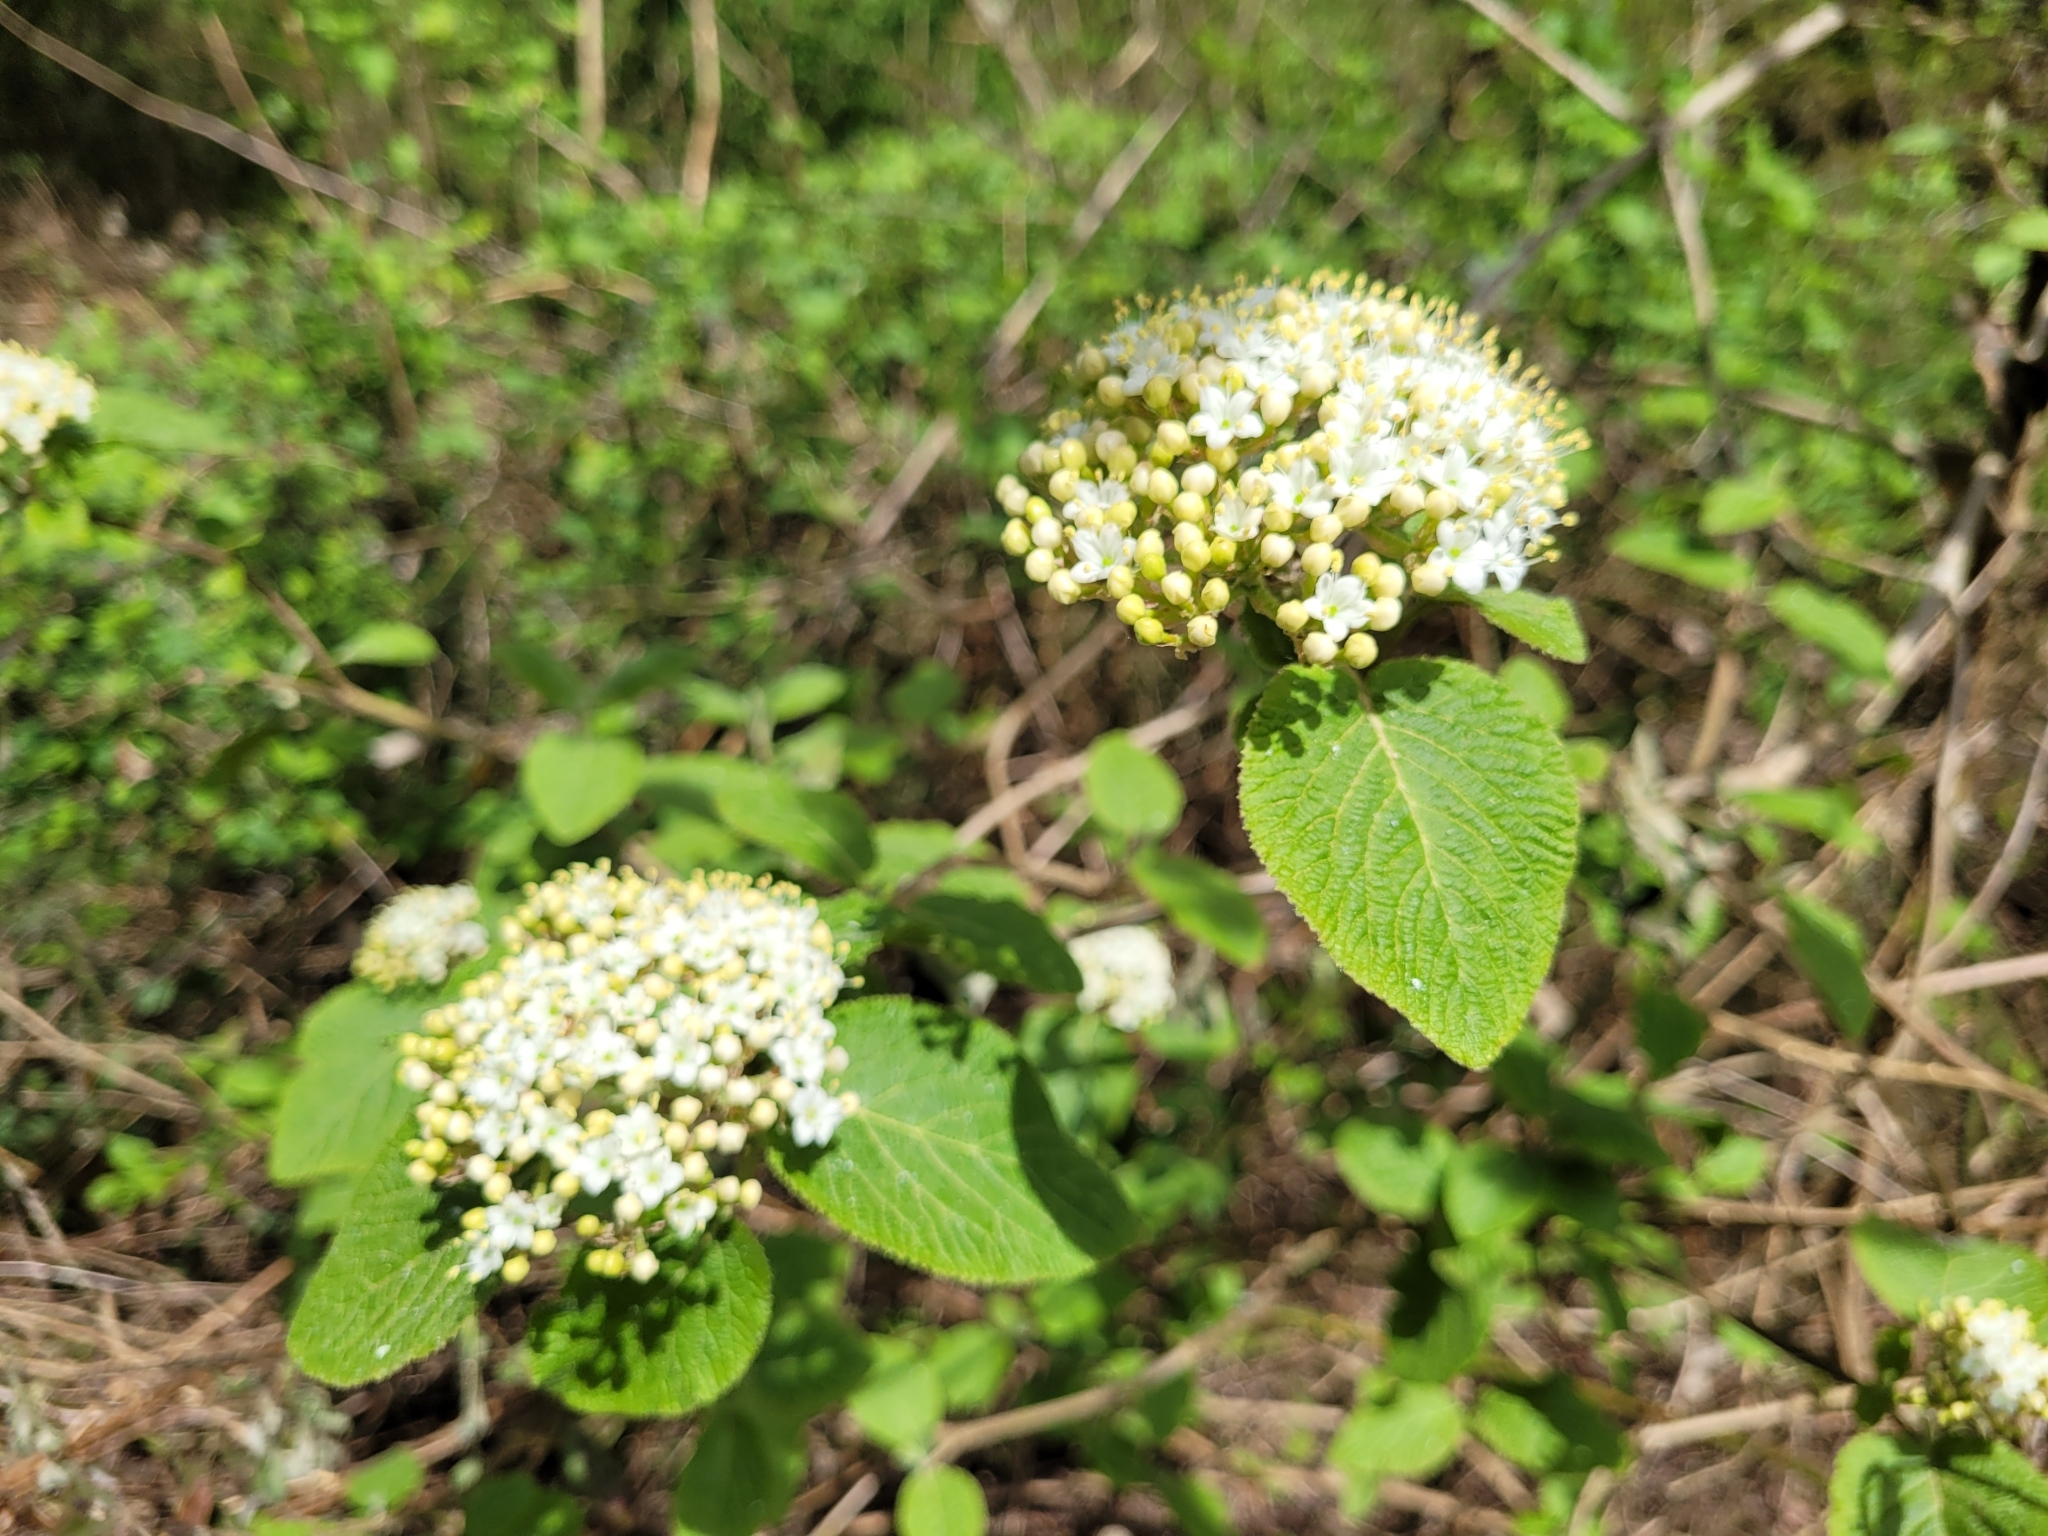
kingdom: Plantae
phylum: Tracheophyta
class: Magnoliopsida
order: Dipsacales
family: Viburnaceae
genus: Viburnum
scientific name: Viburnum lantana
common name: Wayfaring tree
